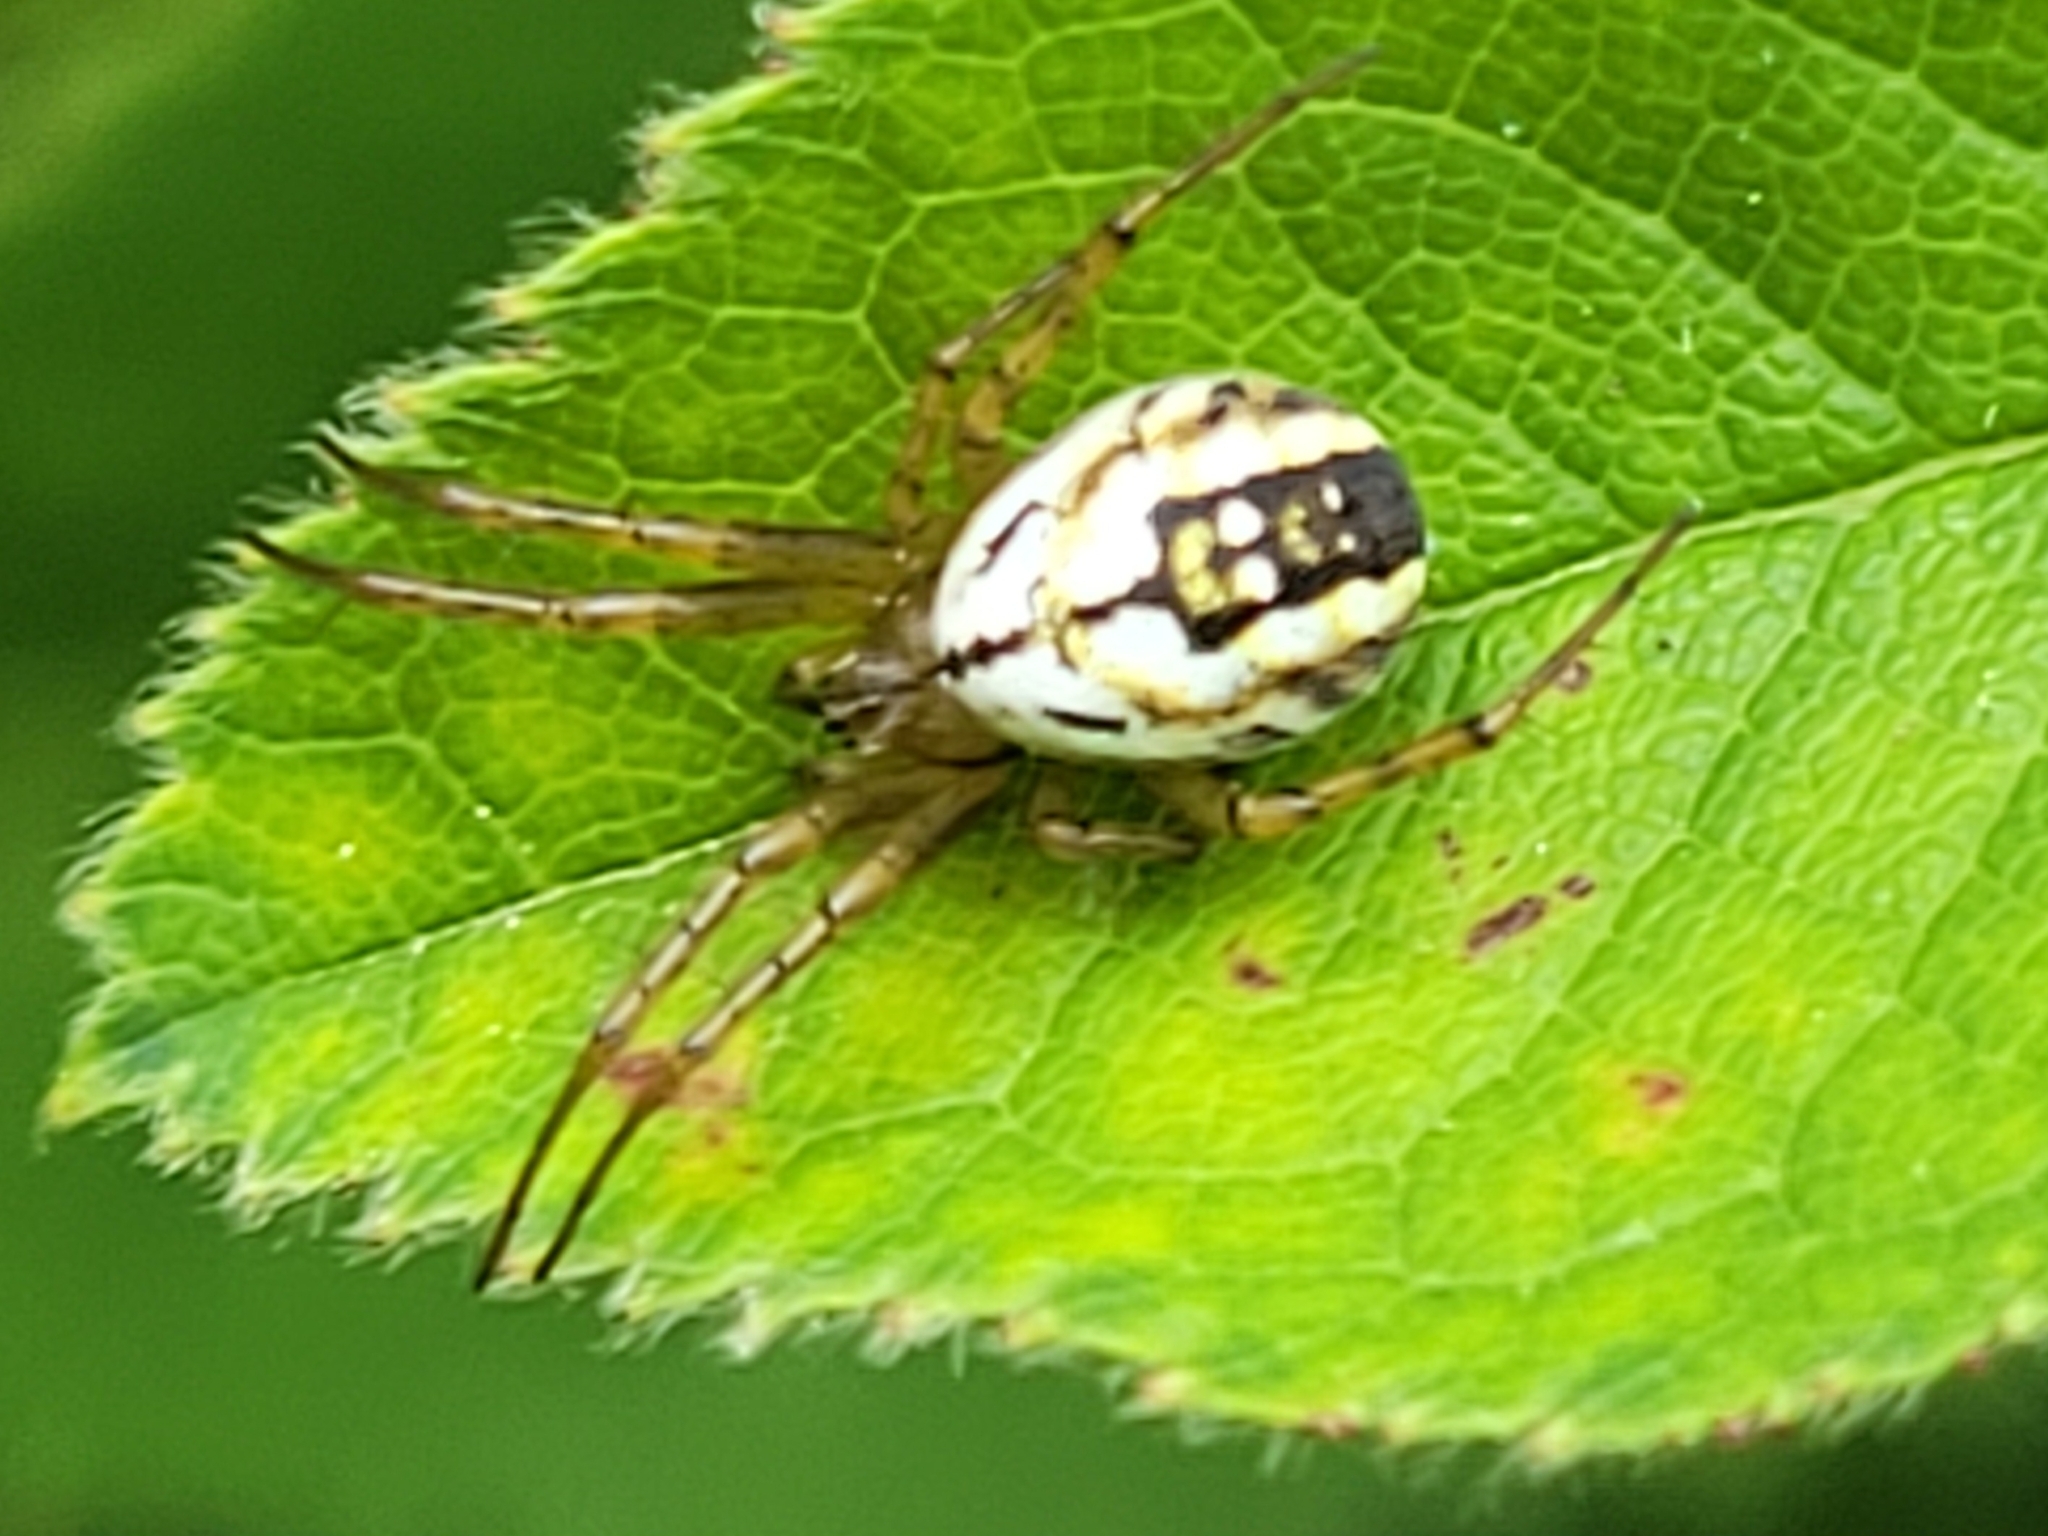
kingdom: Animalia
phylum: Arthropoda
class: Arachnida
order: Araneae
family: Araneidae
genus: Mangora
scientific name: Mangora acalypha
